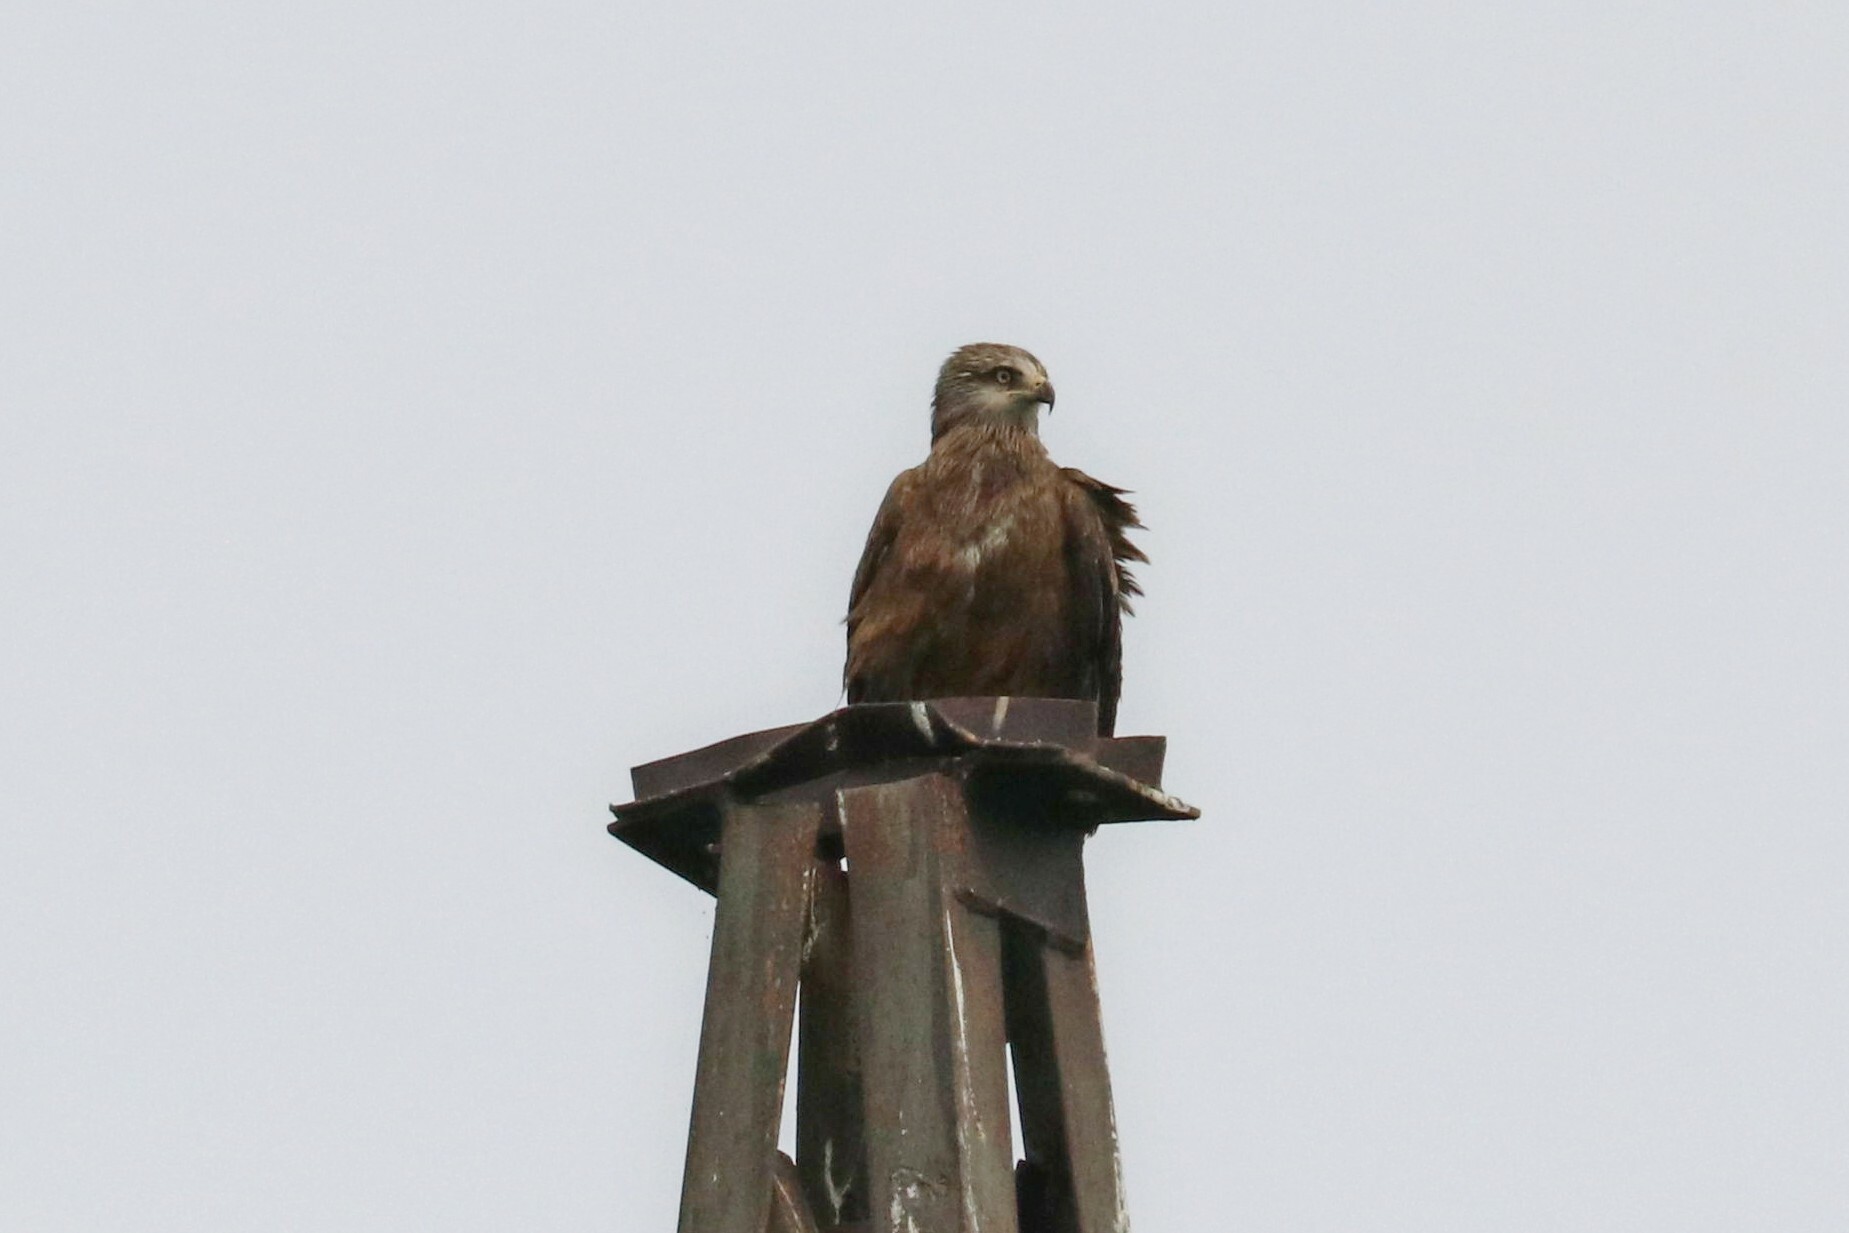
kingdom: Animalia
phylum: Chordata
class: Aves
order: Accipitriformes
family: Accipitridae
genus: Milvus
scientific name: Milvus migrans
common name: Black kite
